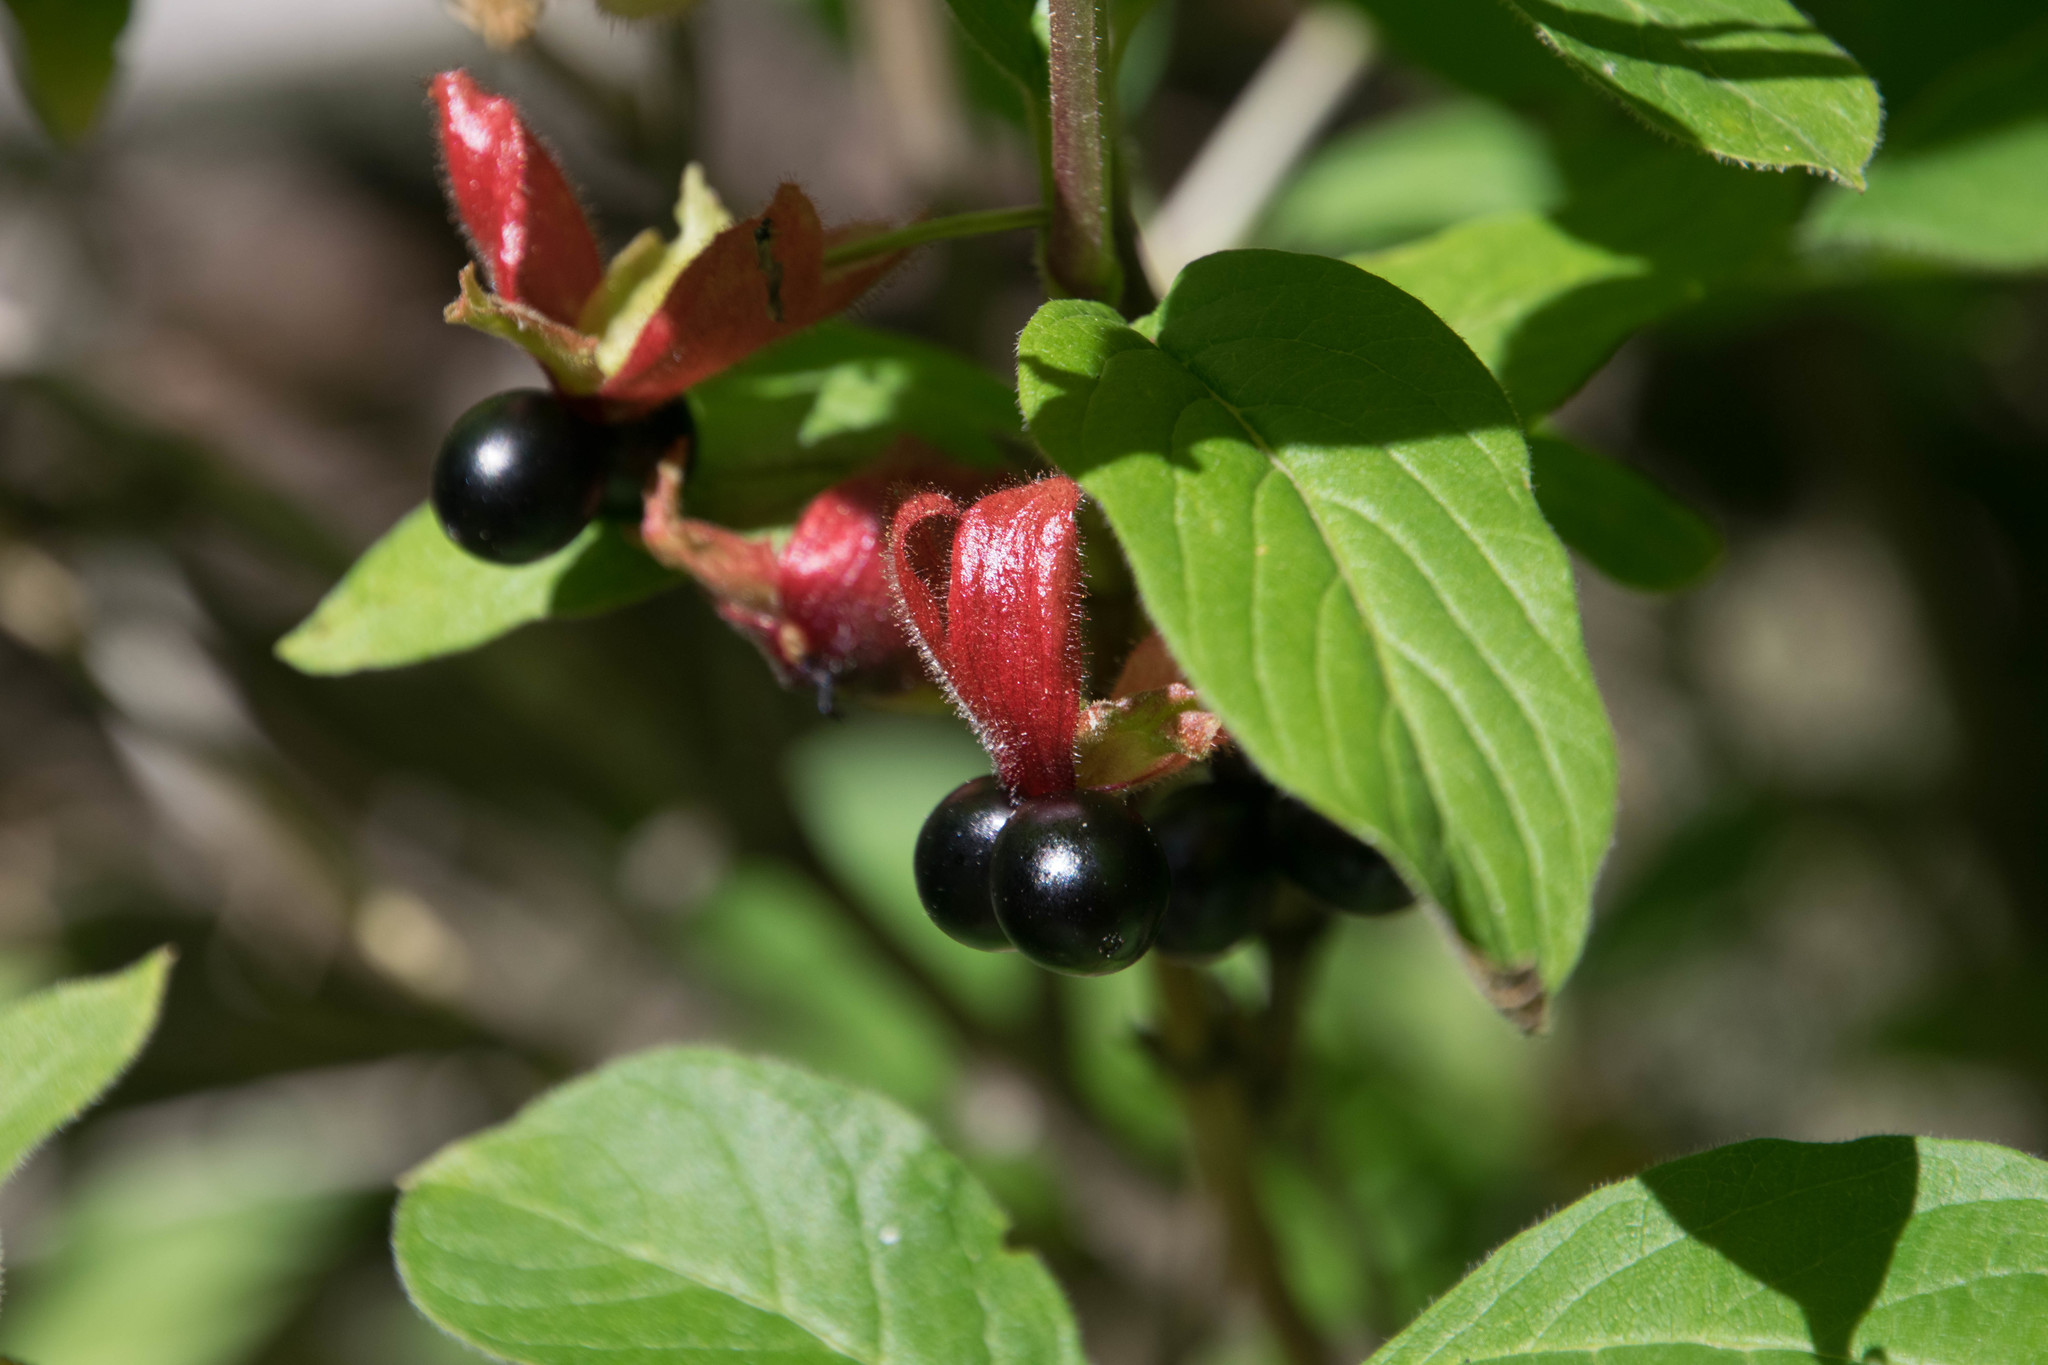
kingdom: Plantae
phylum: Tracheophyta
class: Magnoliopsida
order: Dipsacales
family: Caprifoliaceae
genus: Lonicera
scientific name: Lonicera involucrata
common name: Californian honeysuckle
